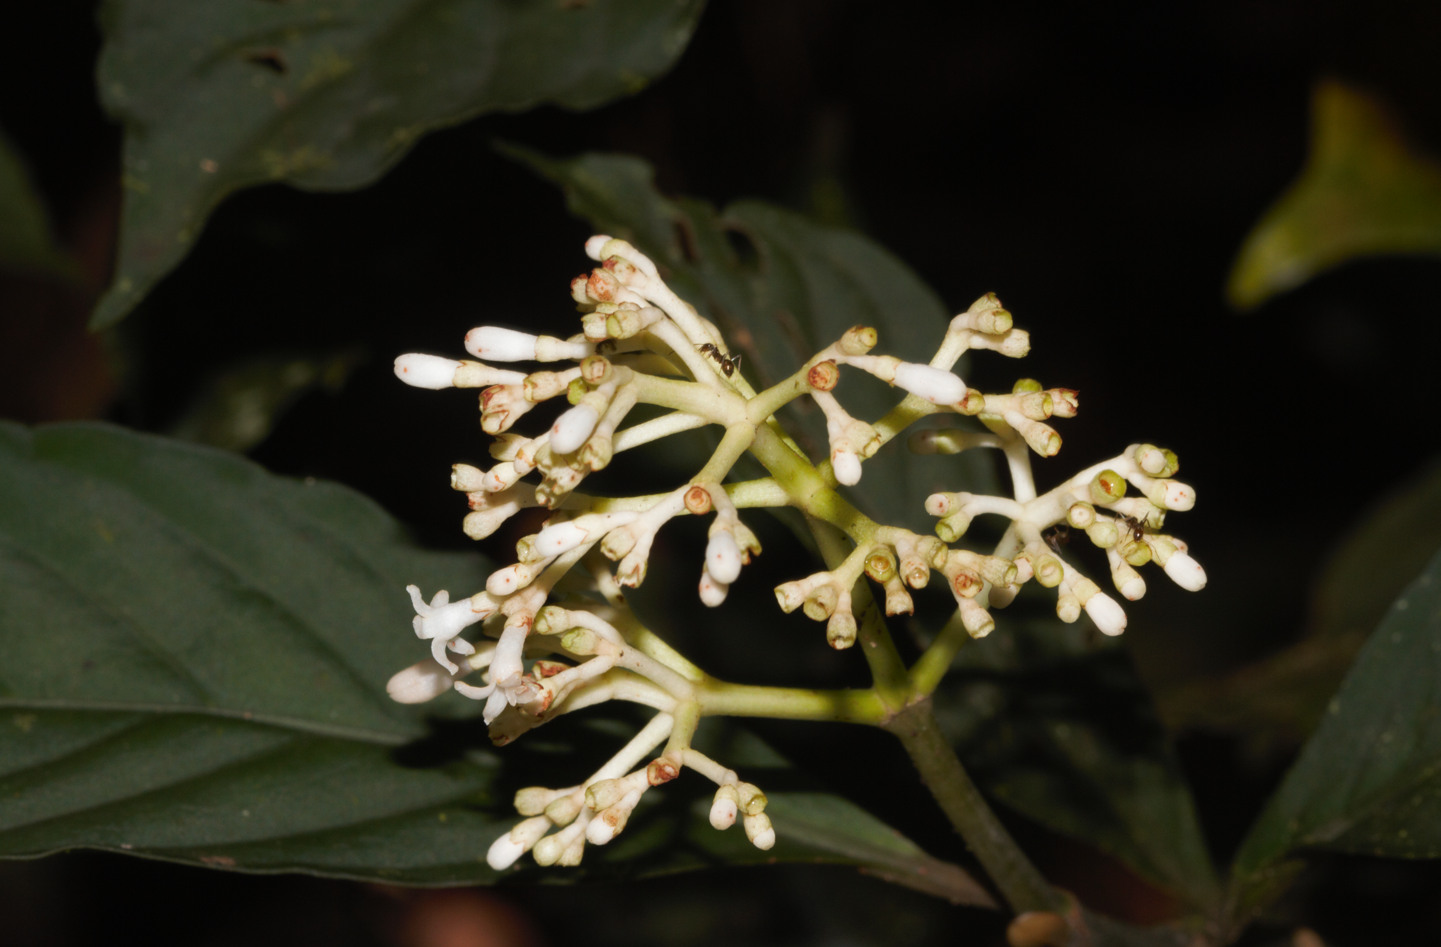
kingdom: Plantae
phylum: Tracheophyta
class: Magnoliopsida
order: Gentianales
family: Rubiaceae
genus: Psychotria
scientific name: Psychotria cupularis
